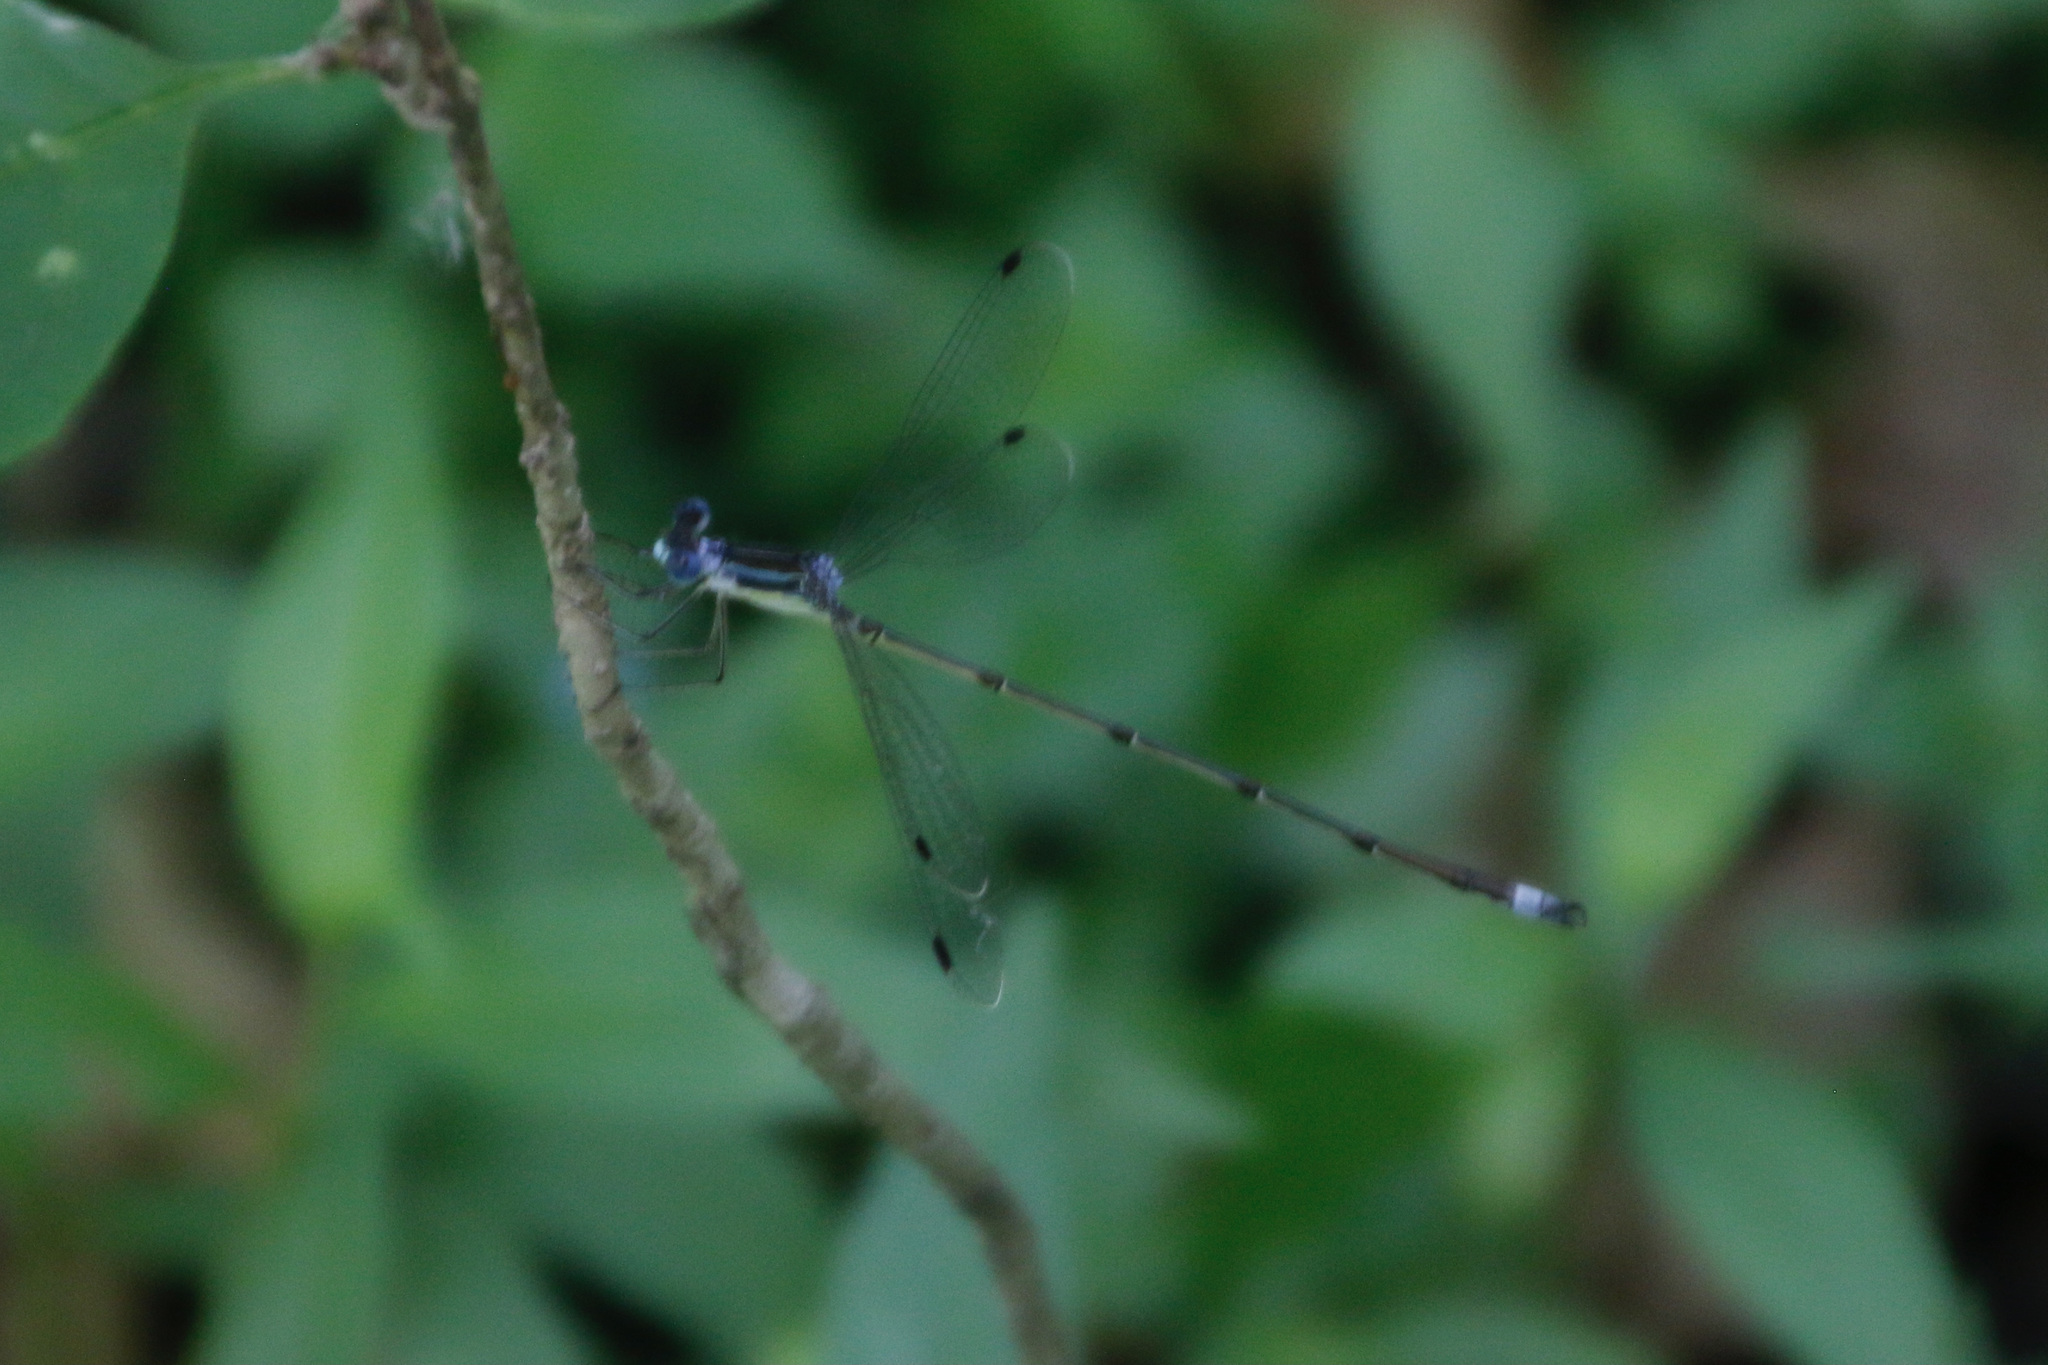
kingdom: Animalia
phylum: Arthropoda
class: Insecta
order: Odonata
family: Lestidae
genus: Lestes
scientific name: Lestes rectangularis
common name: Slender spreadwing
